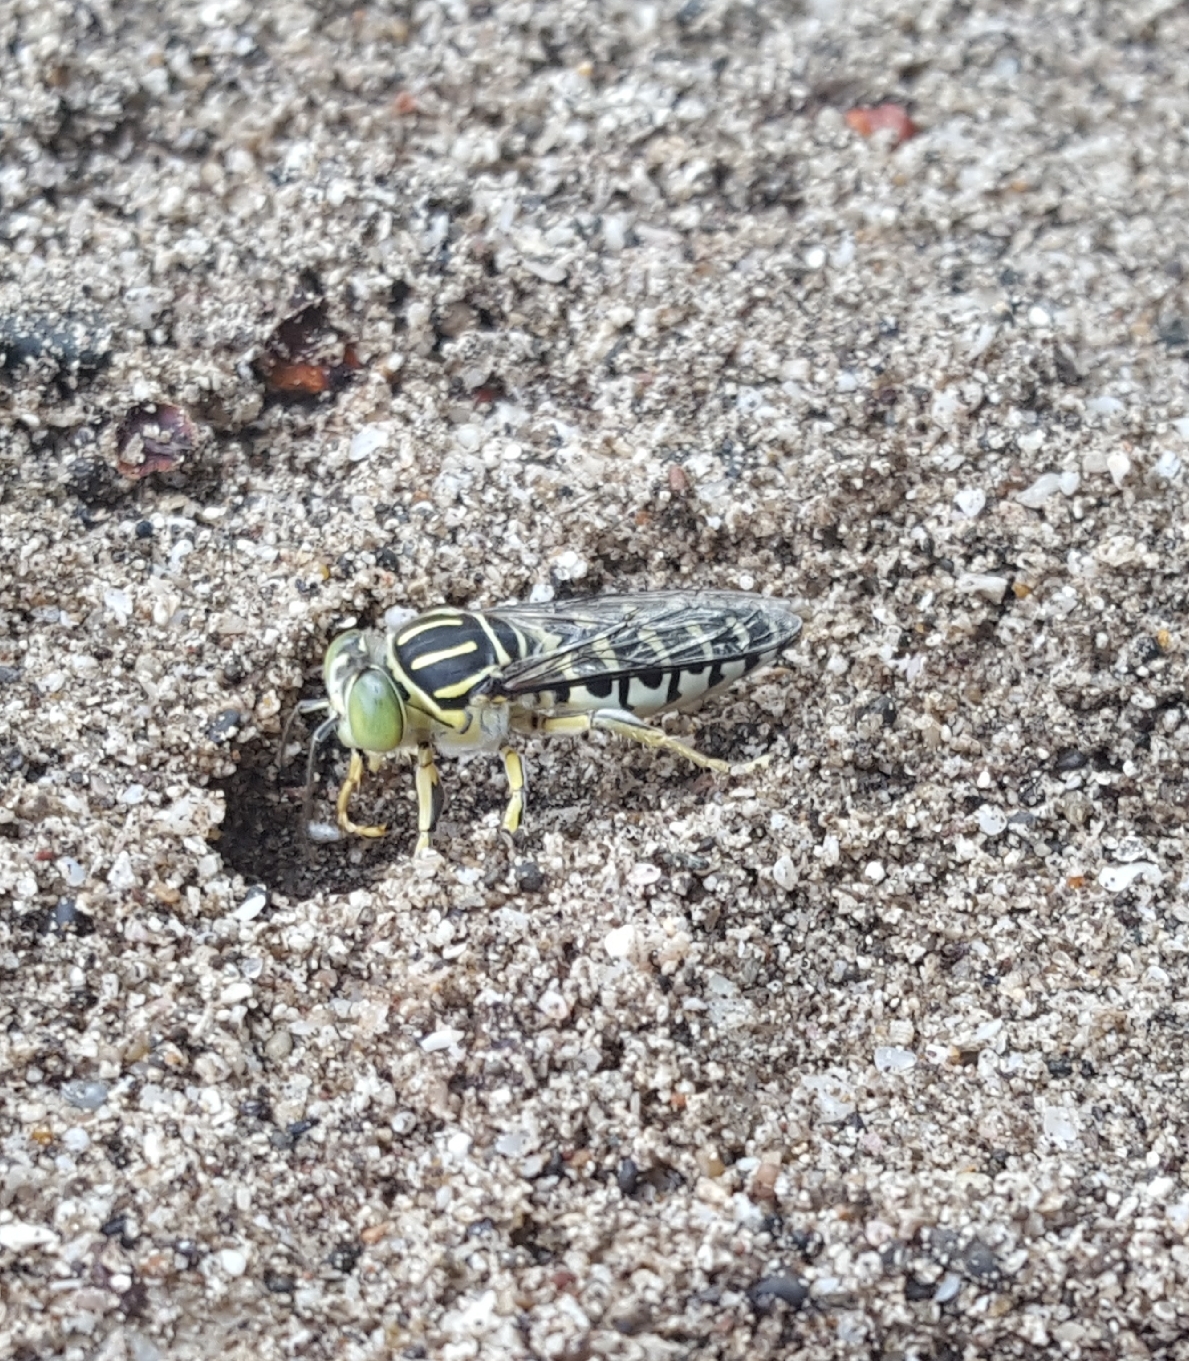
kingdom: Animalia
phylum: Arthropoda
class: Insecta
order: Hymenoptera
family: Crabronidae
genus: Stictia
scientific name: Stictia signata
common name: Sand wasp
